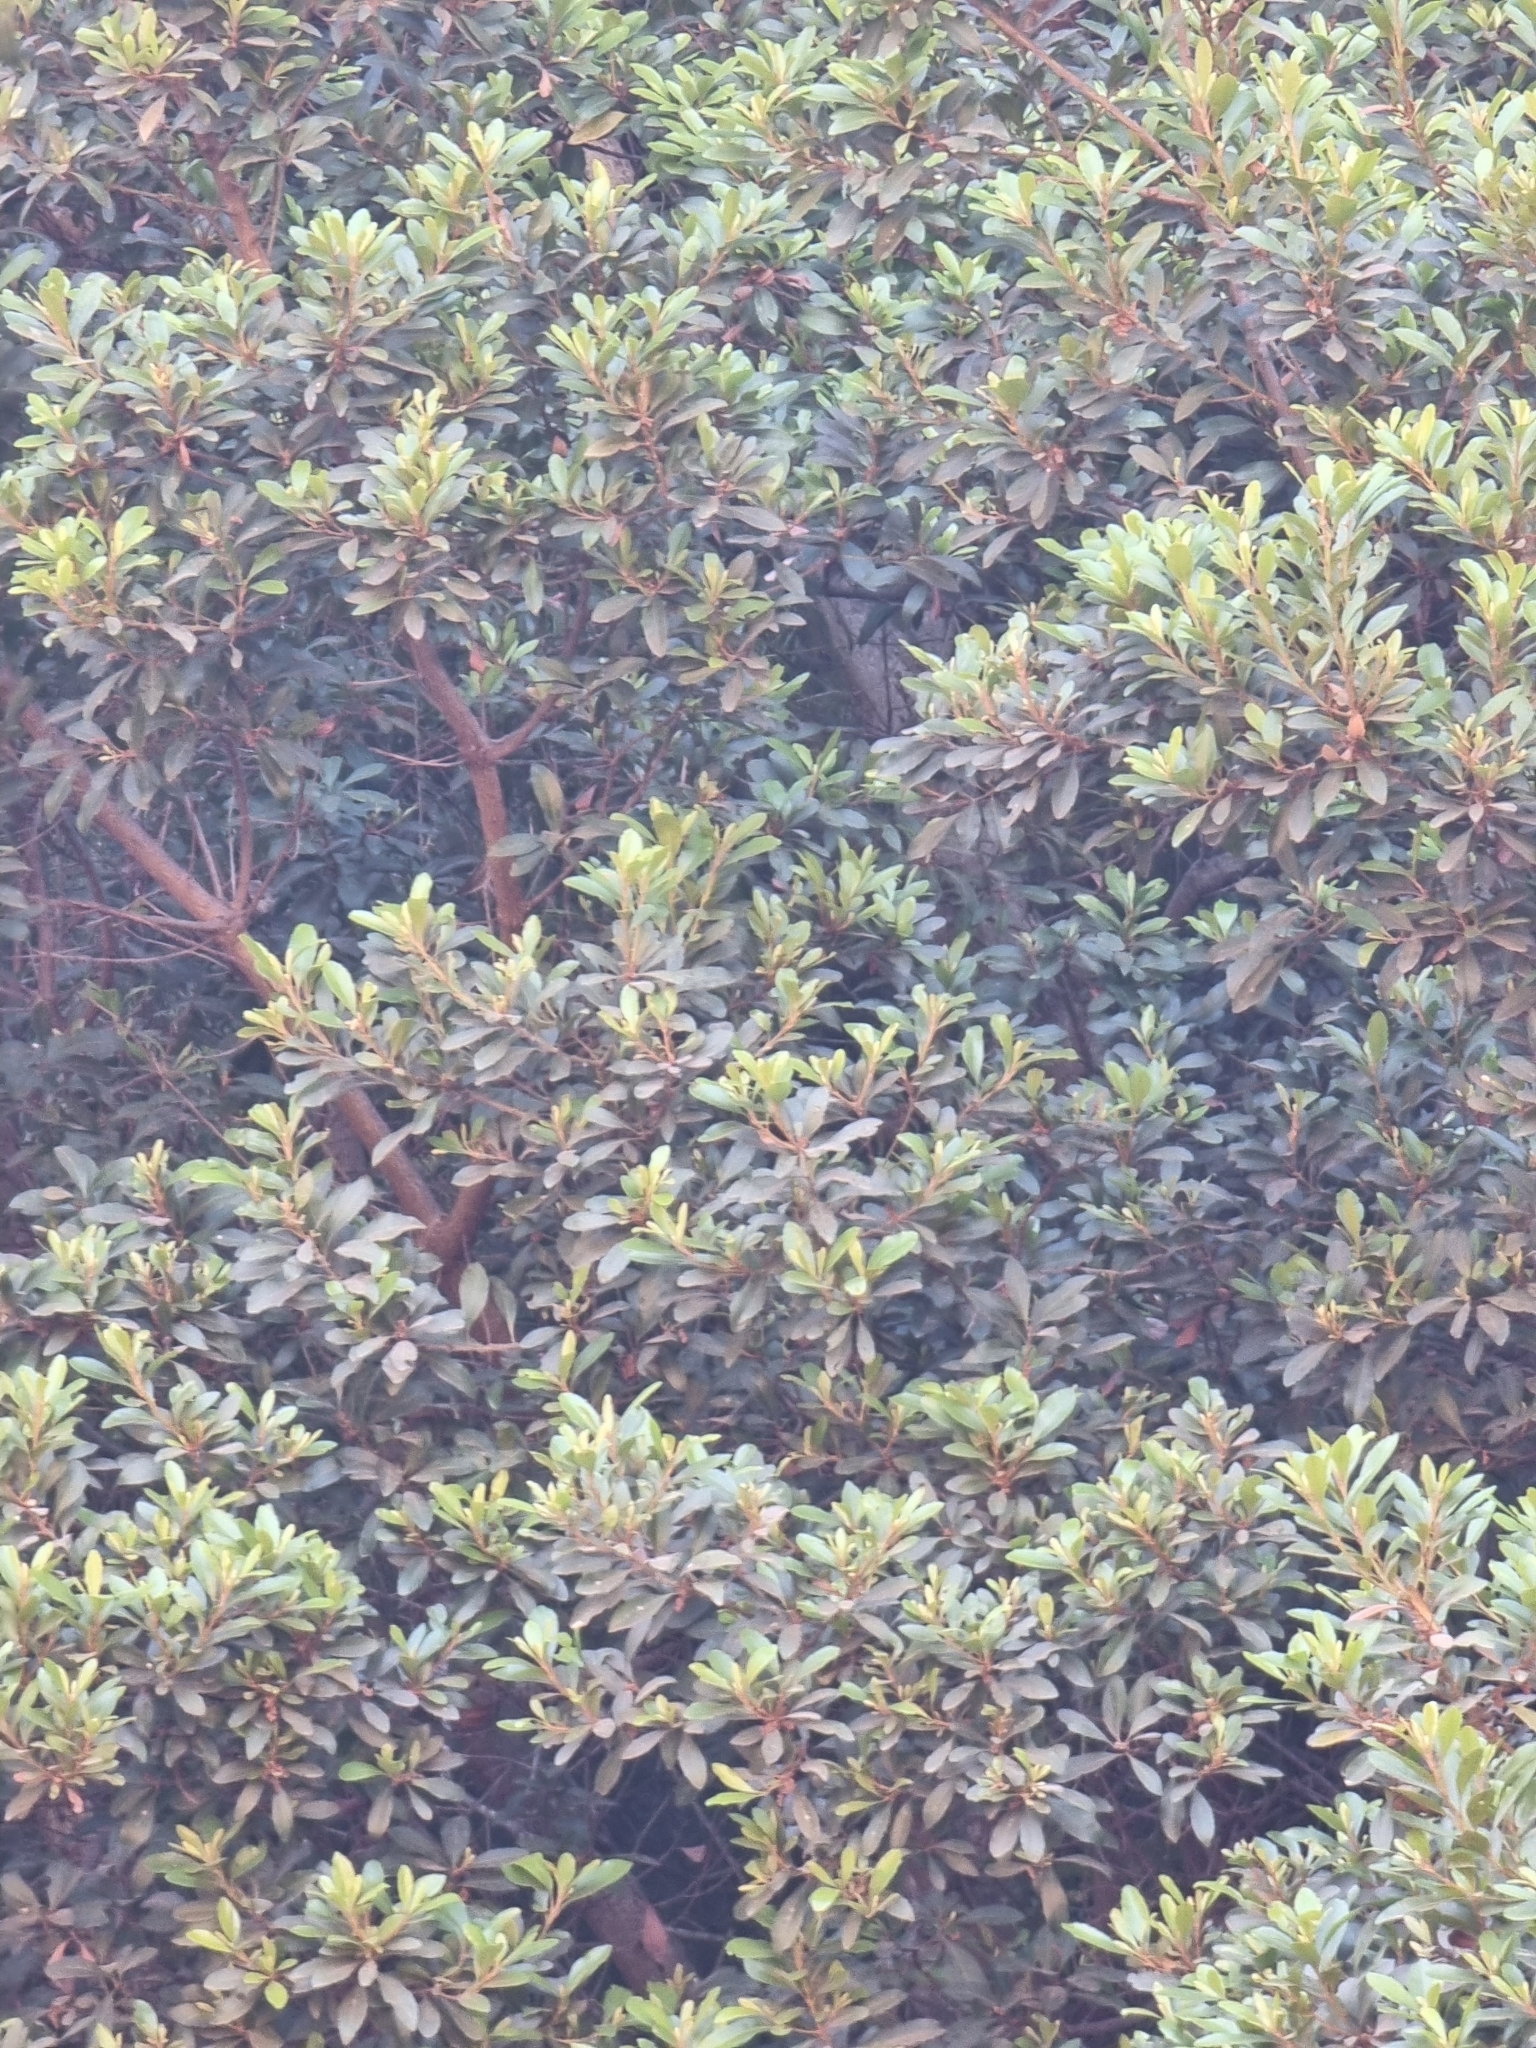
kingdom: Plantae
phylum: Tracheophyta
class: Magnoliopsida
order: Fagales
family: Myricaceae
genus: Morella
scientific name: Morella faya
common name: Firetree
